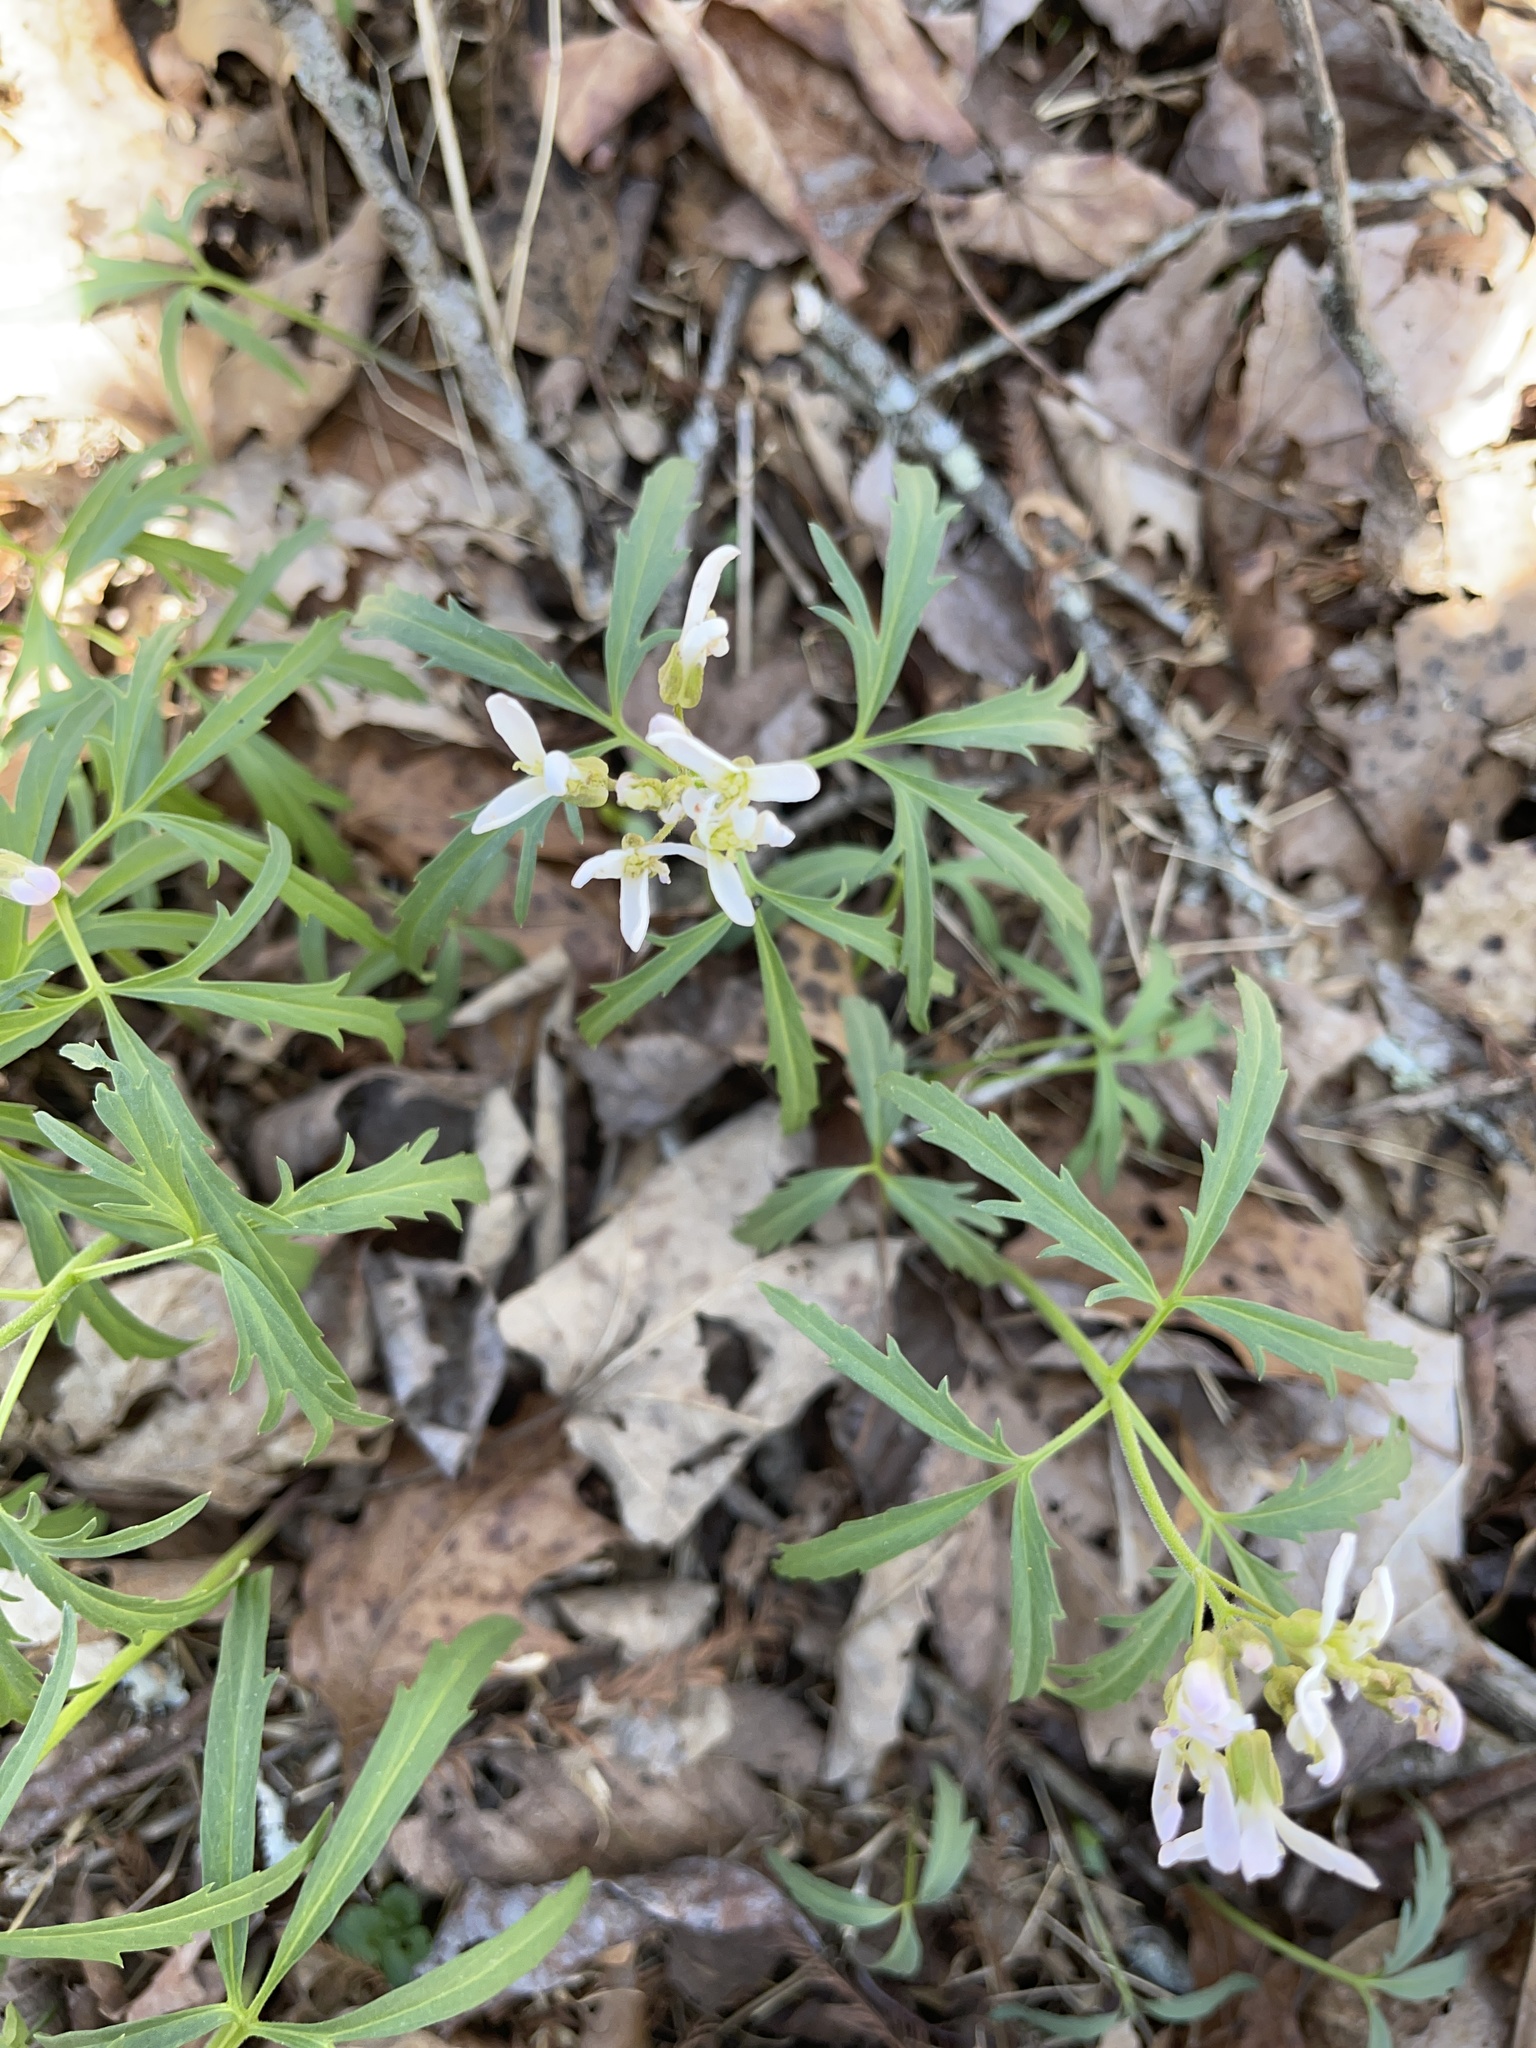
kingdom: Plantae
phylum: Tracheophyta
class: Magnoliopsida
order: Brassicales
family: Brassicaceae
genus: Cardamine
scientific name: Cardamine concatenata
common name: Cut-leaf toothcup
